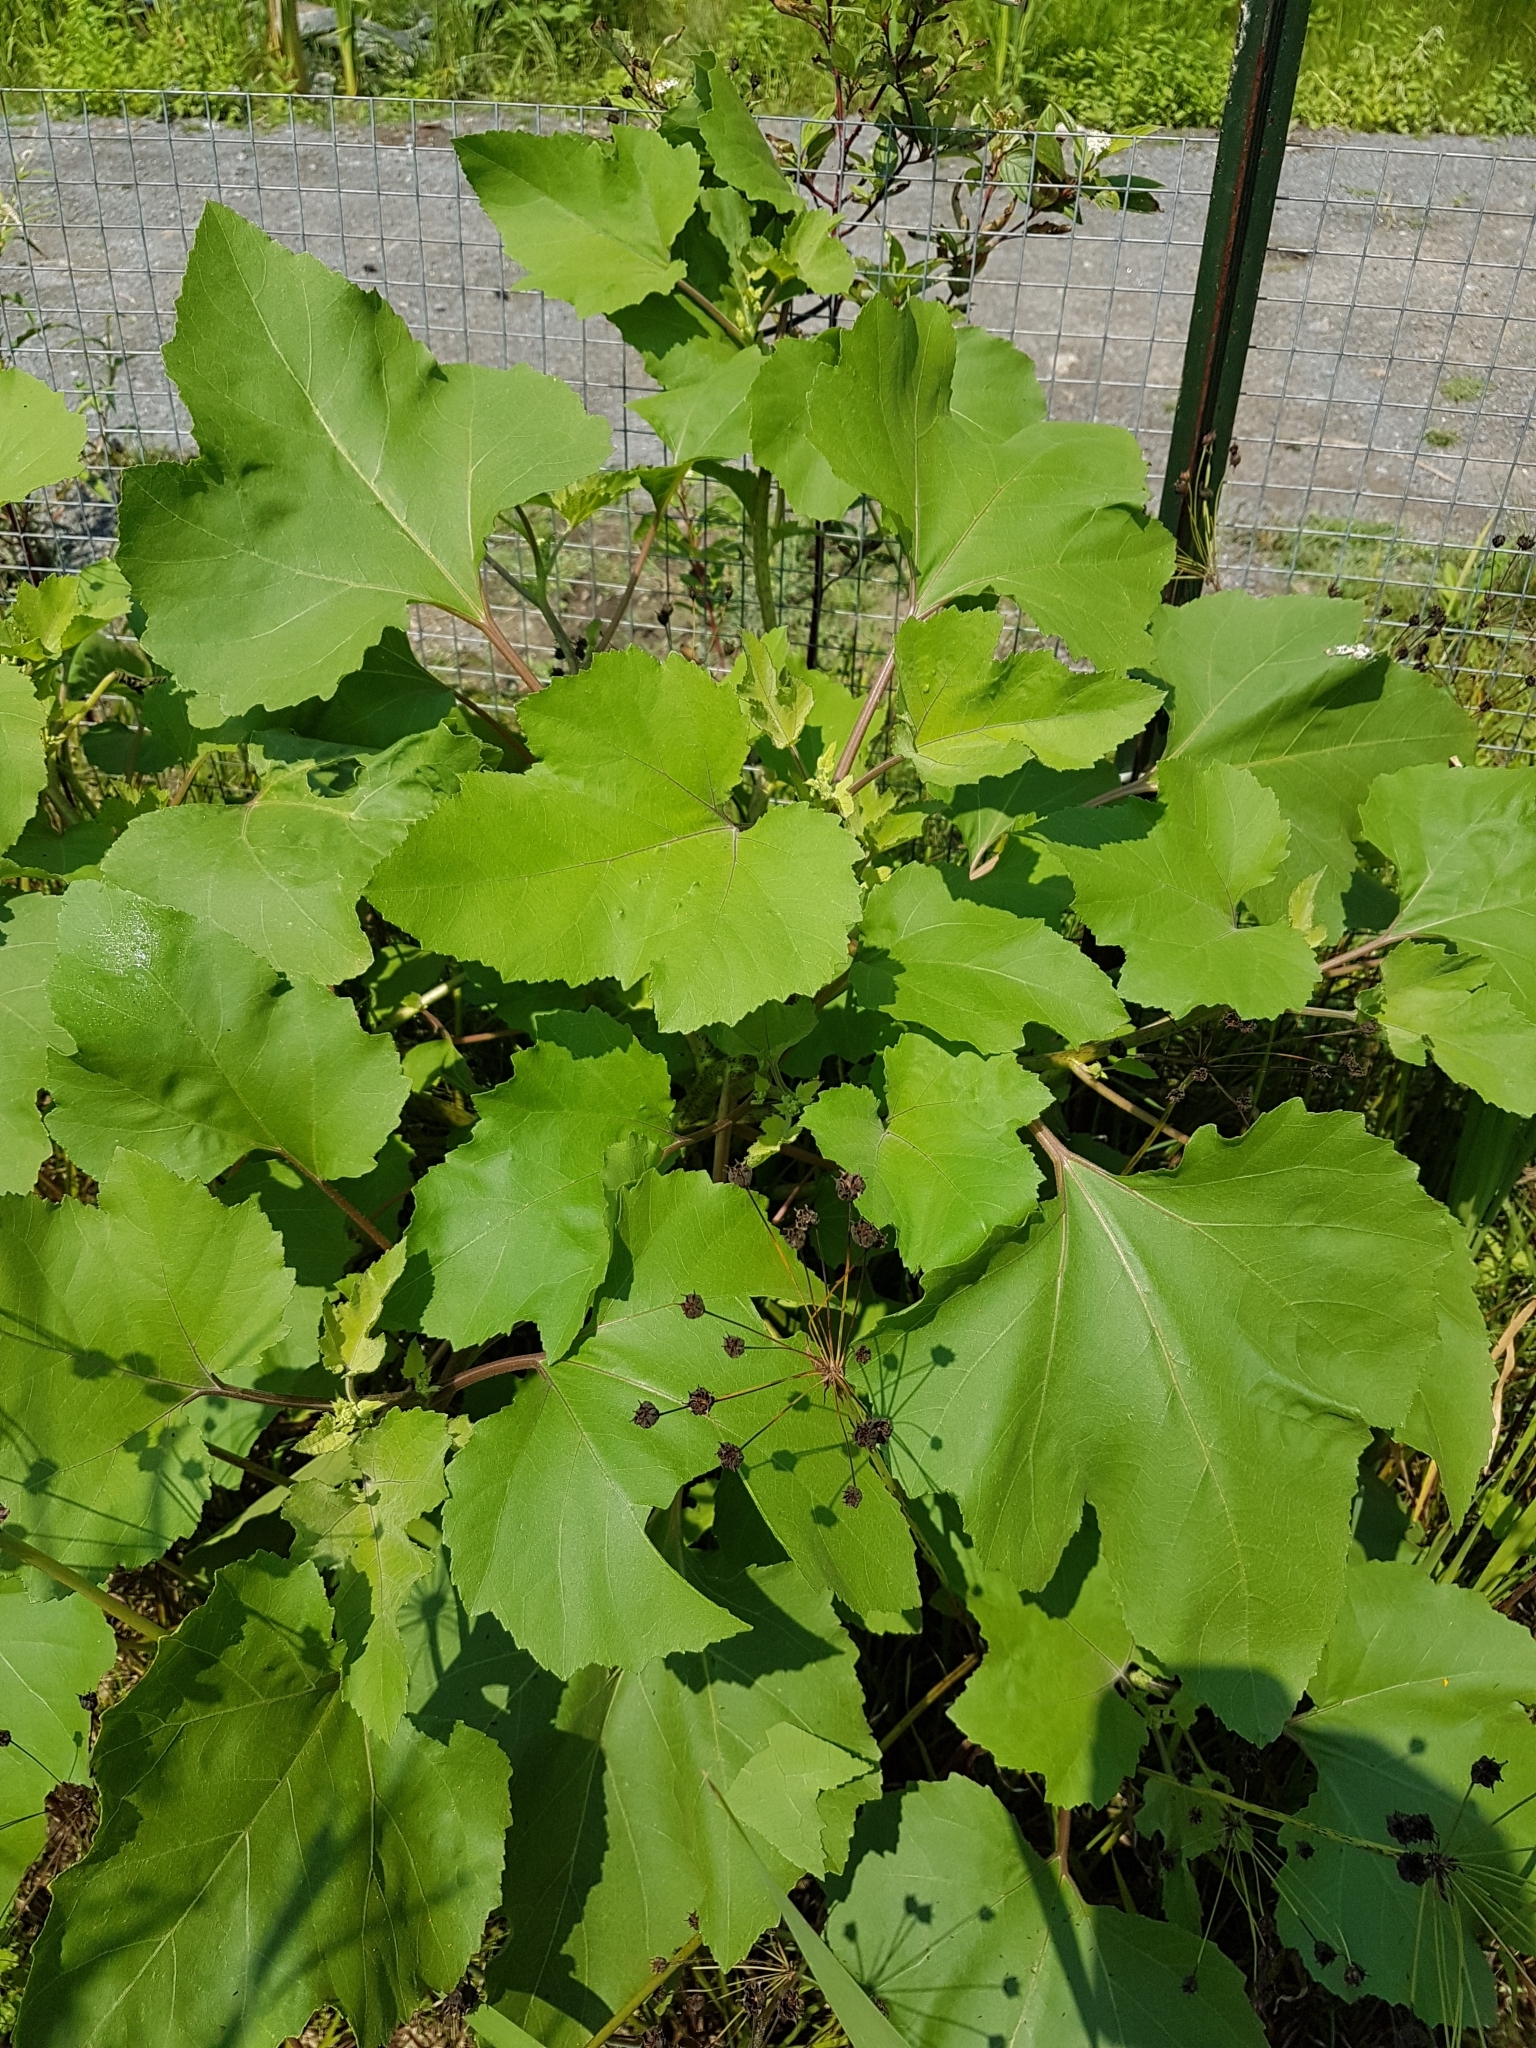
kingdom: Plantae
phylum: Tracheophyta
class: Magnoliopsida
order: Asterales
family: Asteraceae
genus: Xanthium
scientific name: Xanthium strumarium
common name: Rough cocklebur
